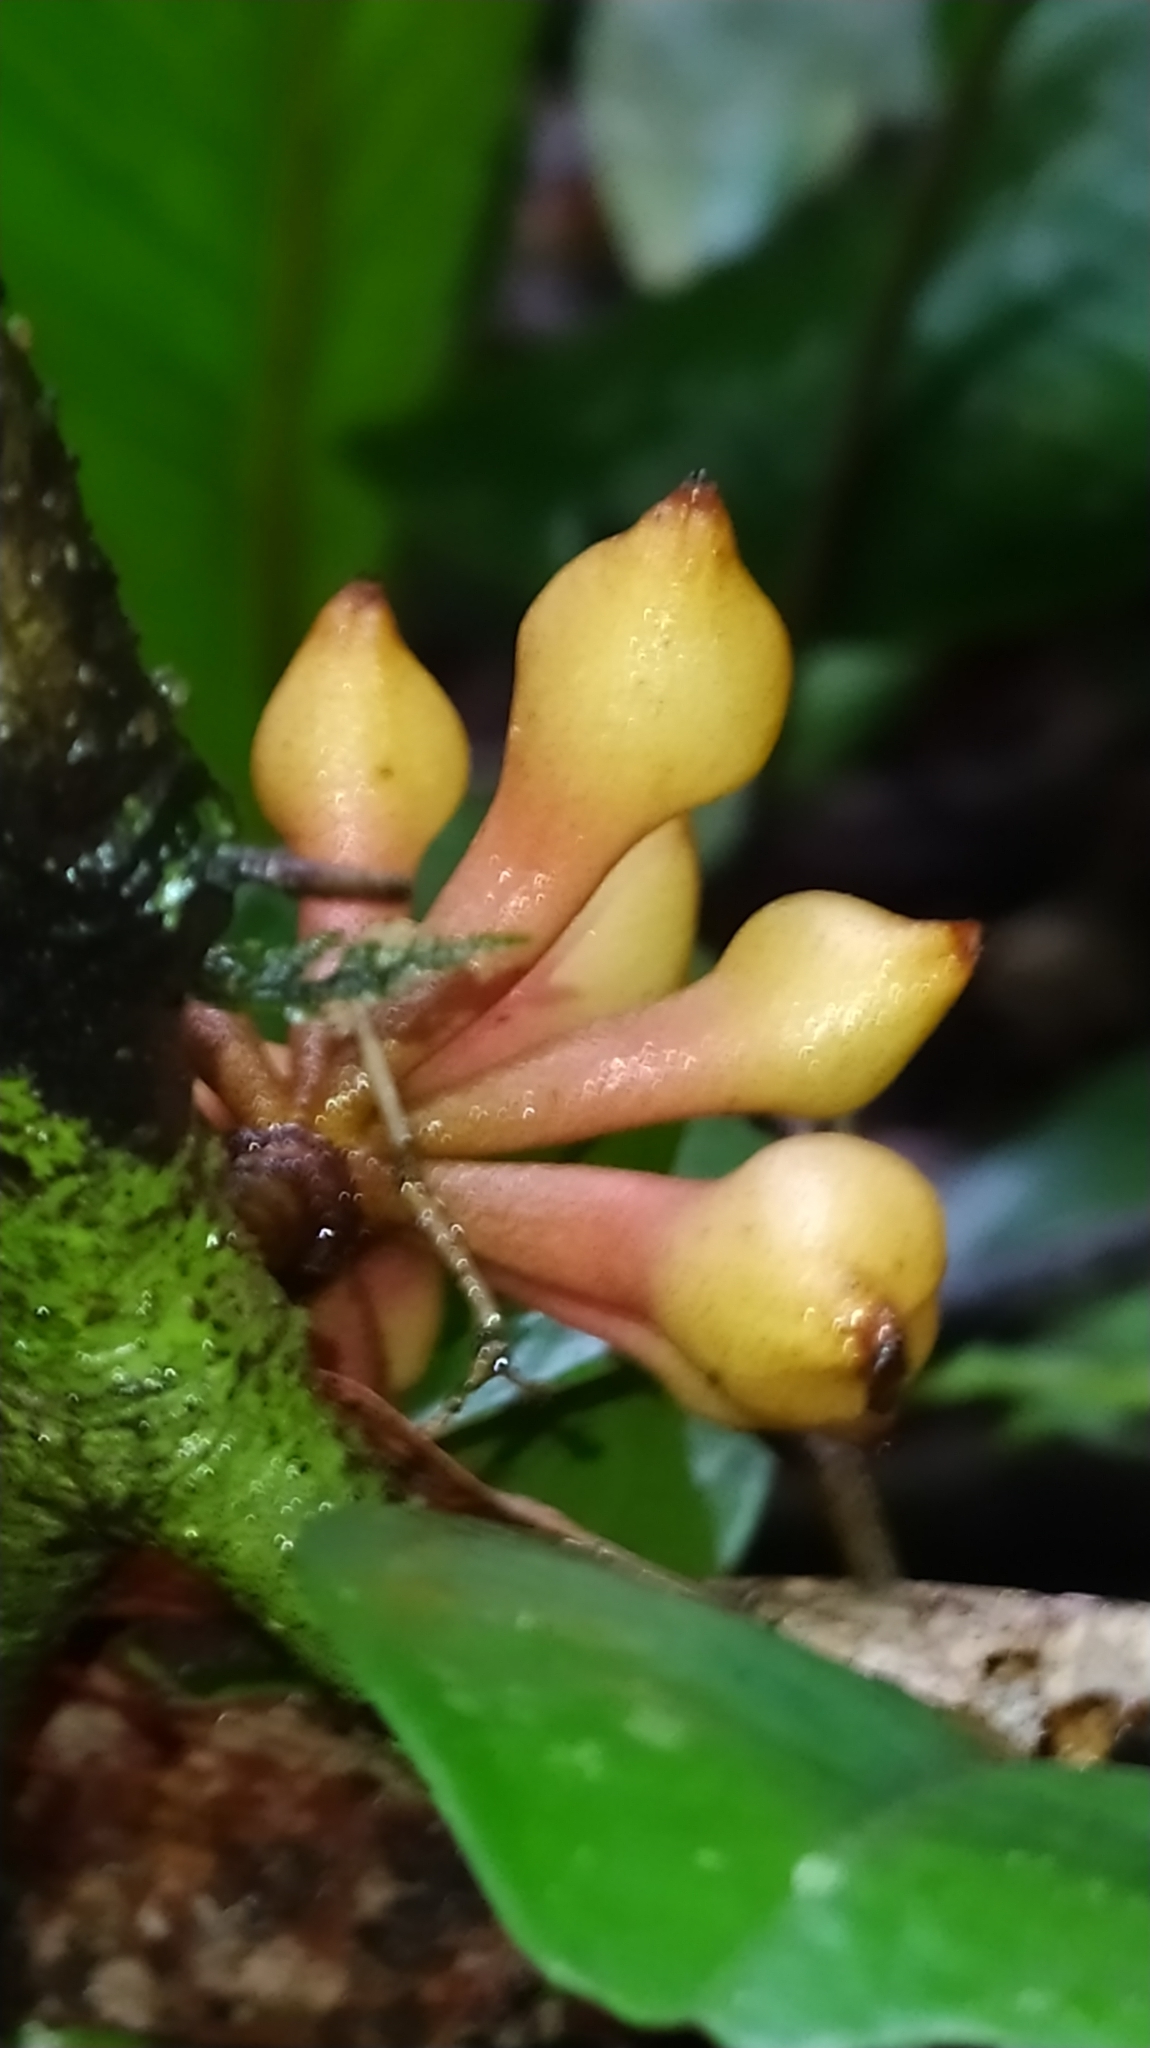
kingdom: Plantae
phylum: Tracheophyta
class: Magnoliopsida
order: Magnoliales
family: Annonaceae
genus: Anaxagorea
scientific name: Anaxagorea
